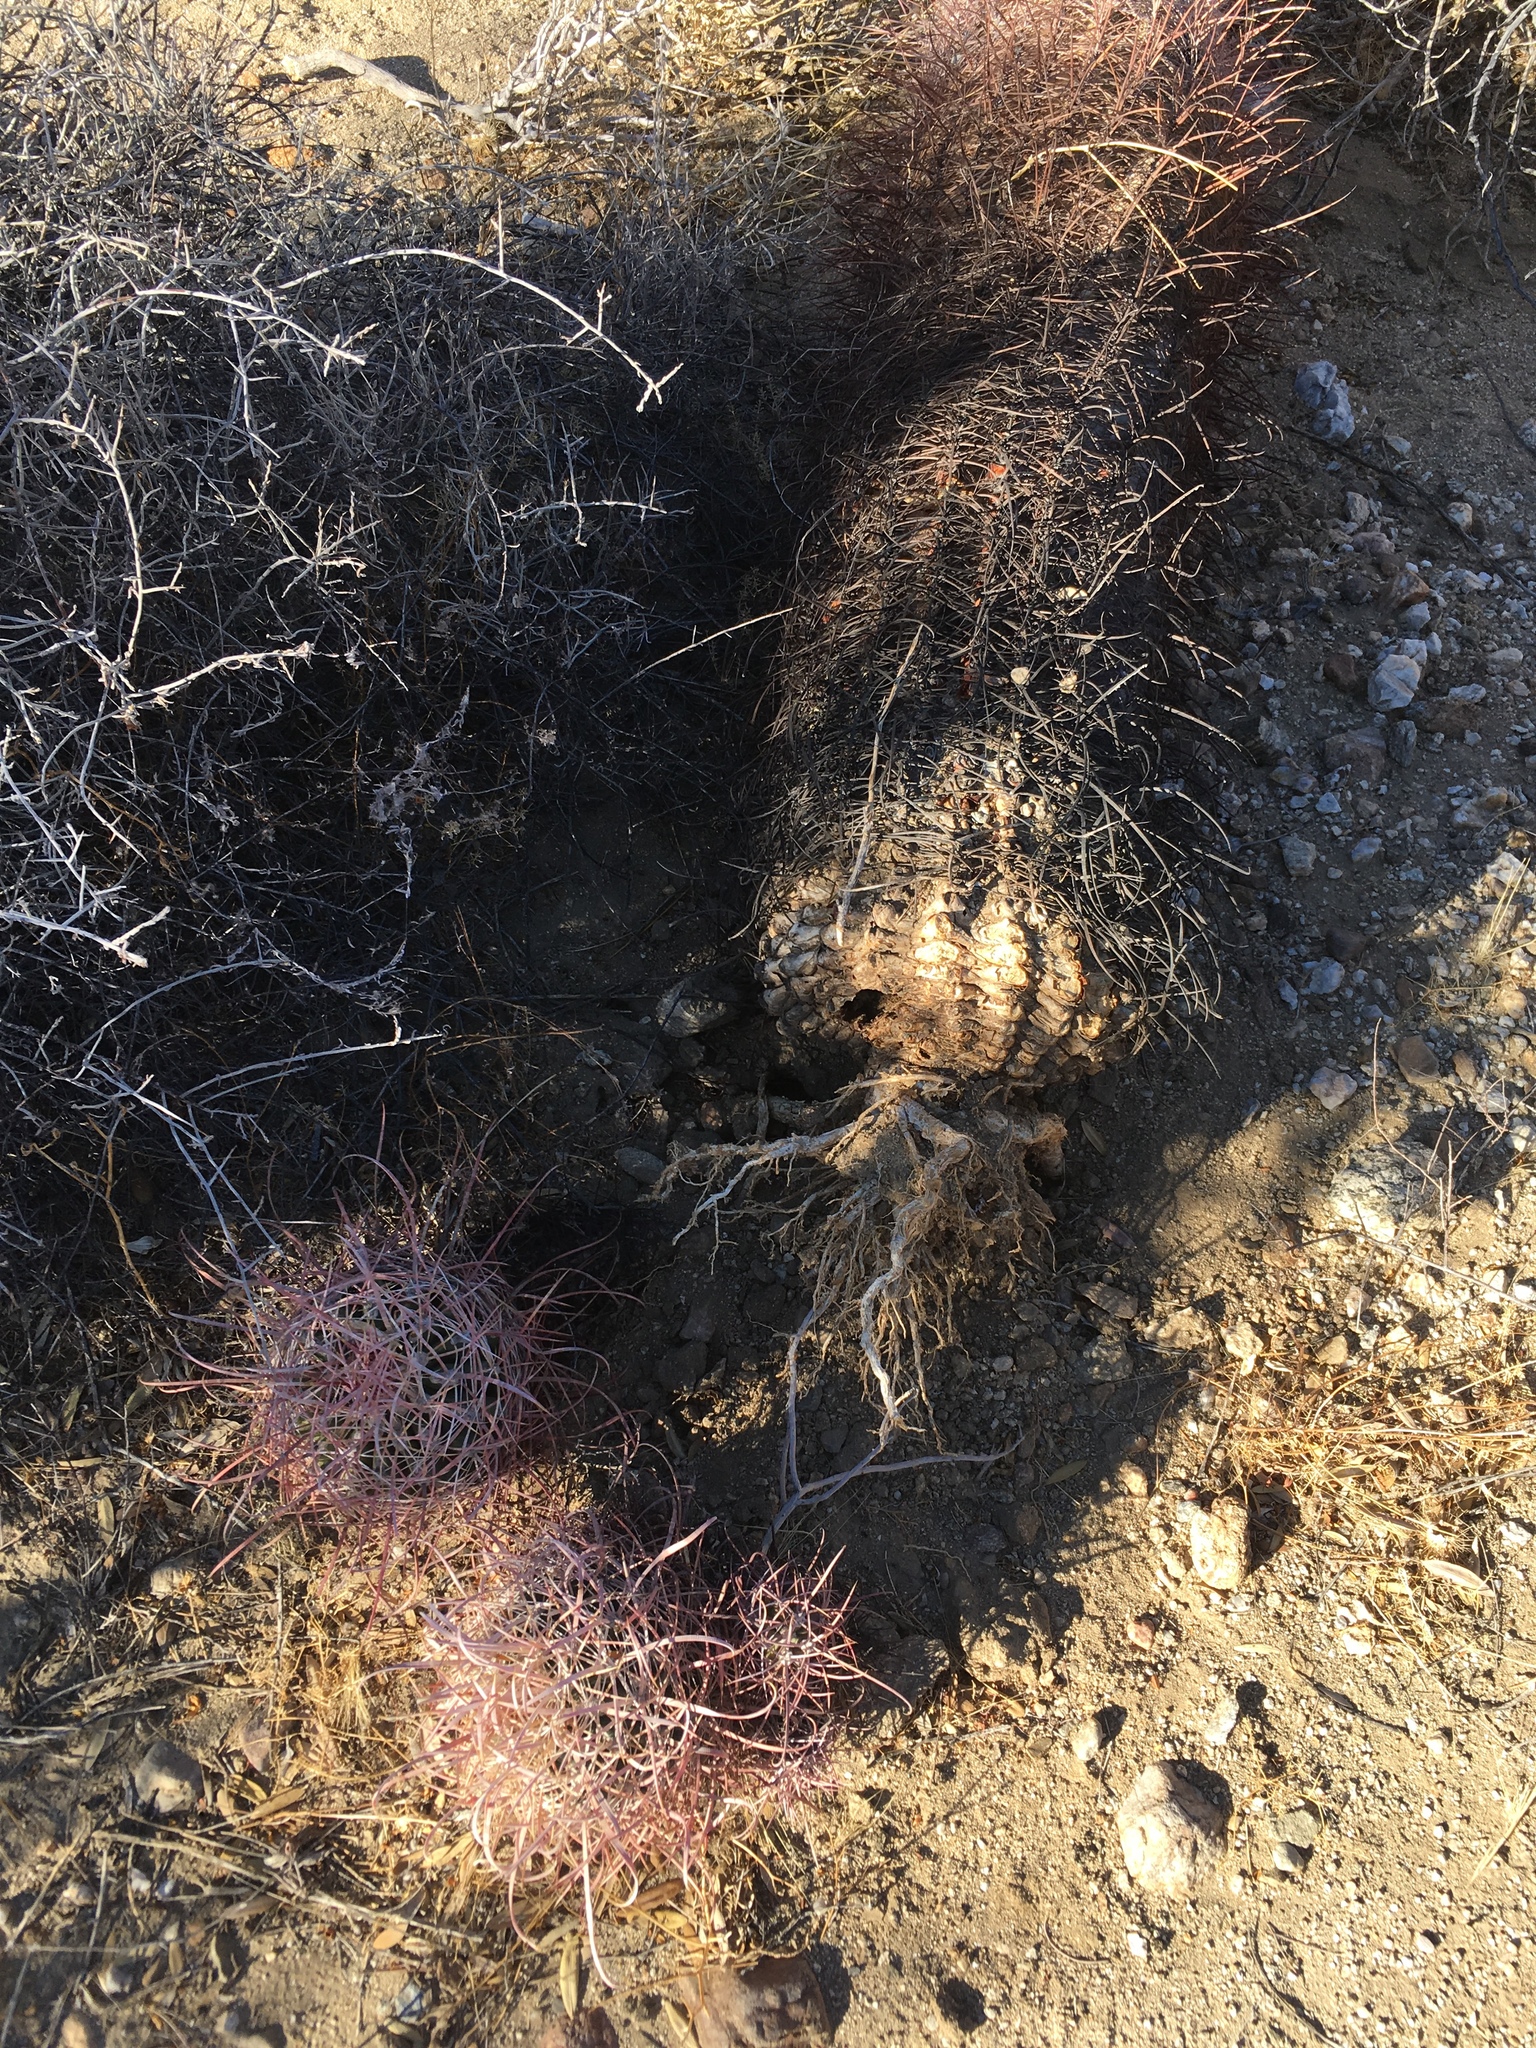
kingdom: Plantae
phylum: Tracheophyta
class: Magnoliopsida
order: Caryophyllales
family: Cactaceae
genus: Ferocactus
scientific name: Ferocactus cylindraceus
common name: California barrel cactus
